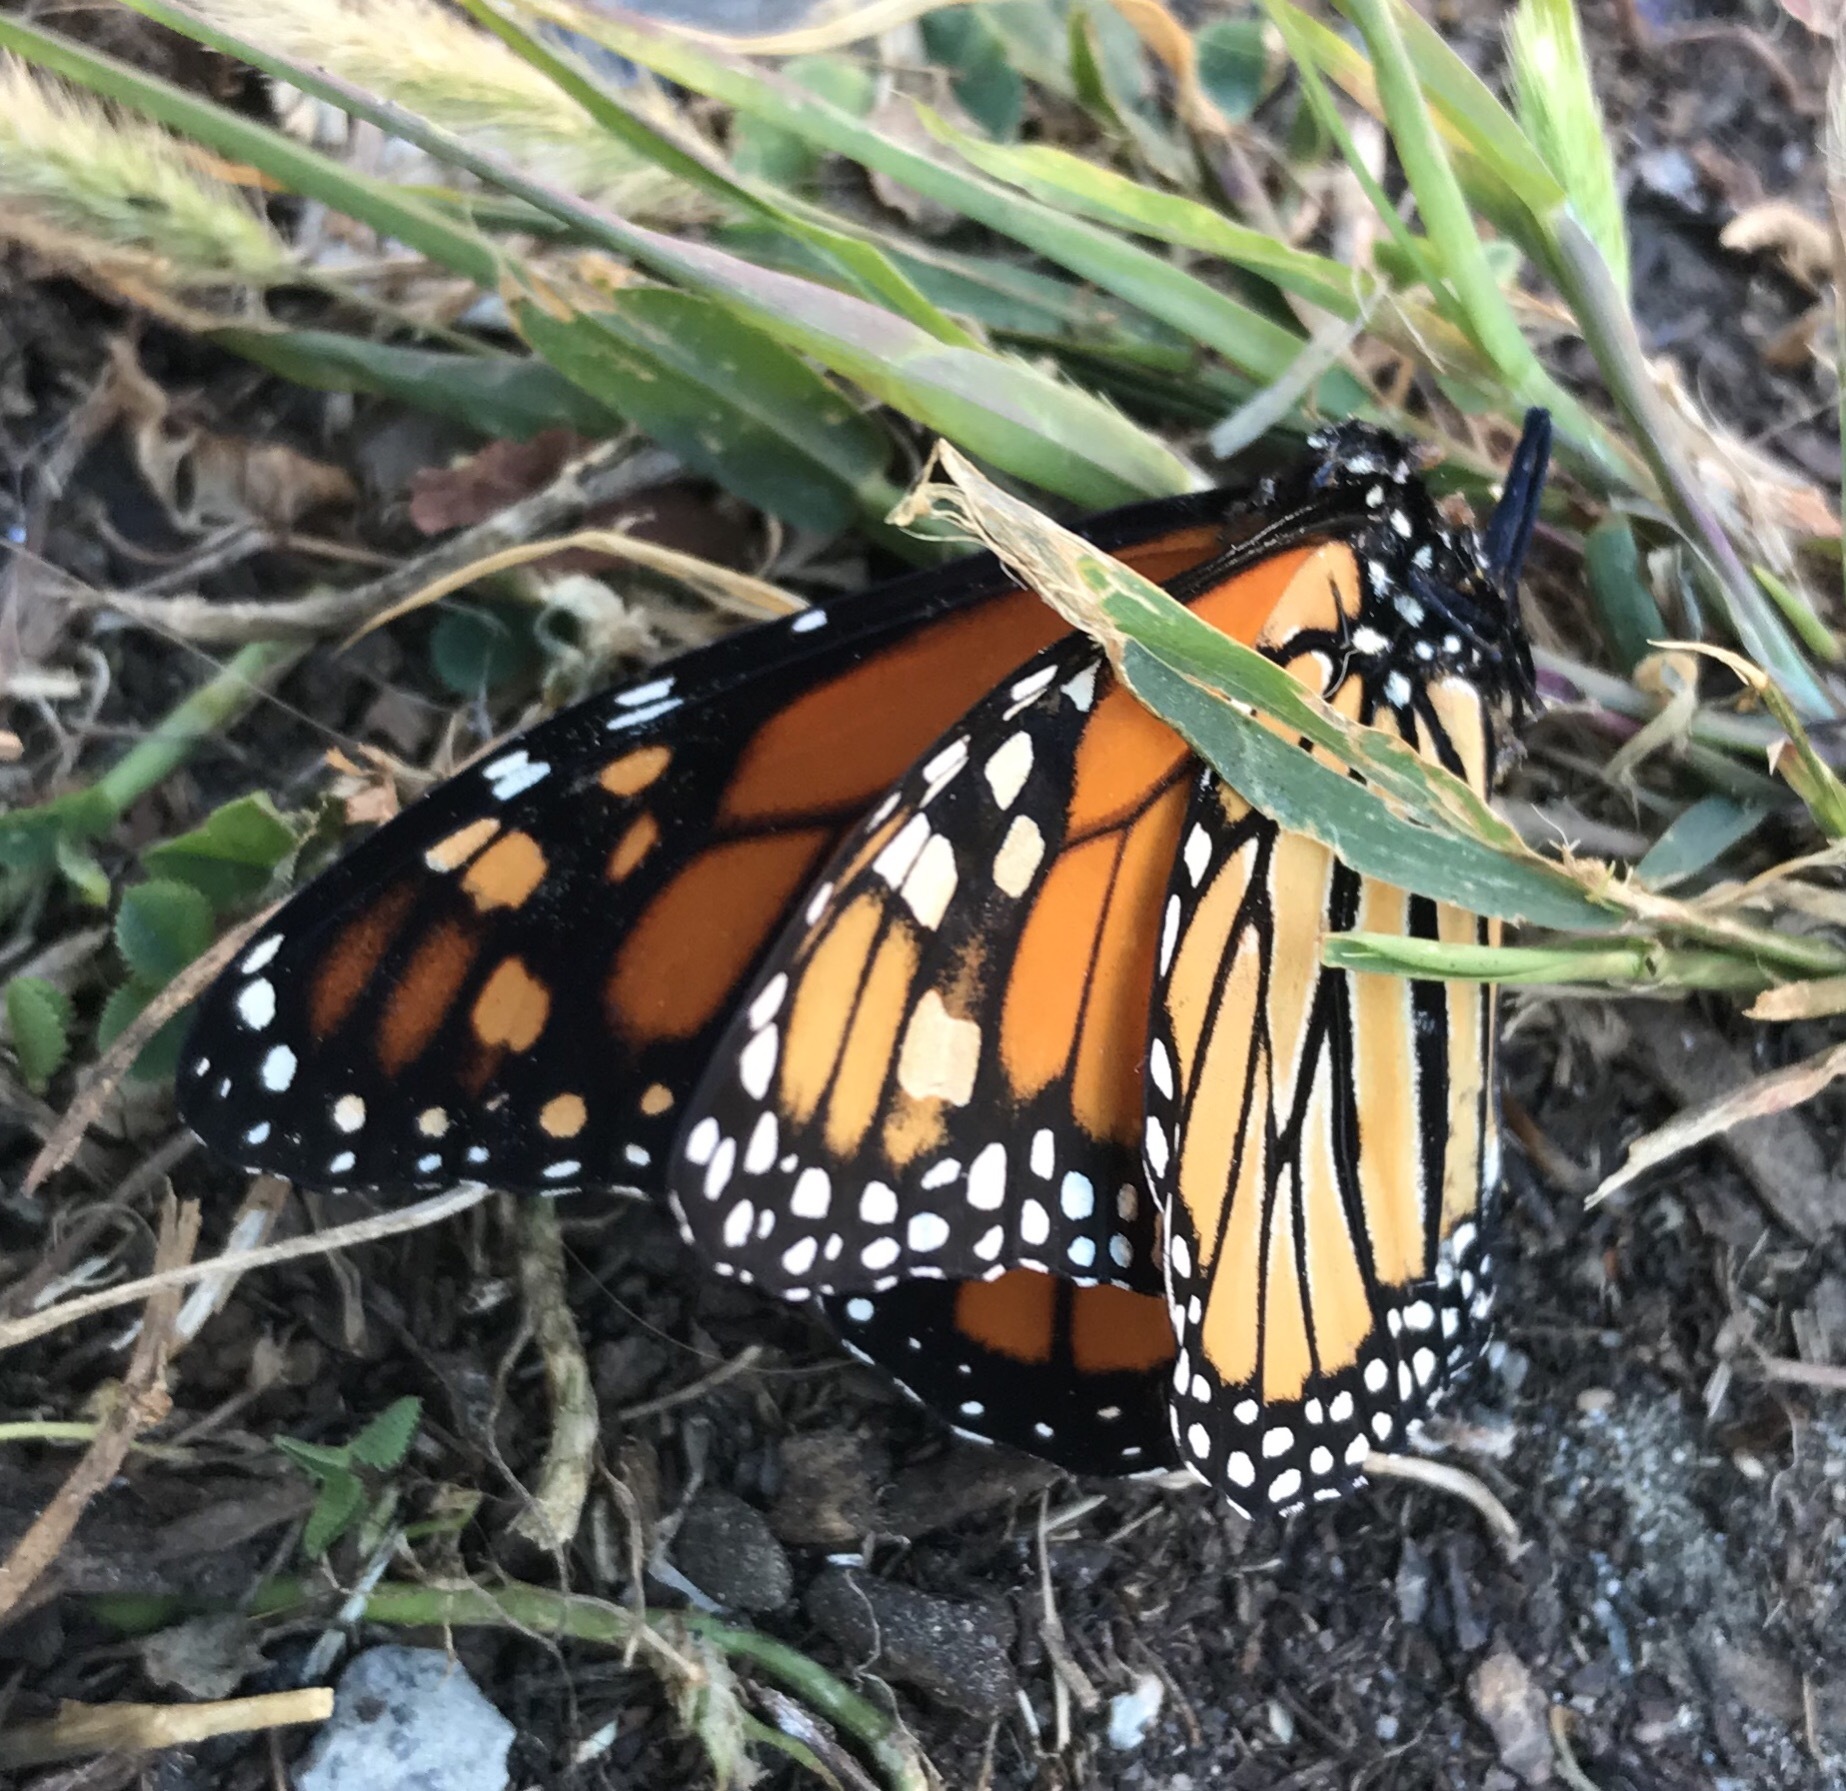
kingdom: Animalia
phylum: Arthropoda
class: Insecta
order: Lepidoptera
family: Nymphalidae
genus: Danaus
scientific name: Danaus plexippus
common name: Monarch
